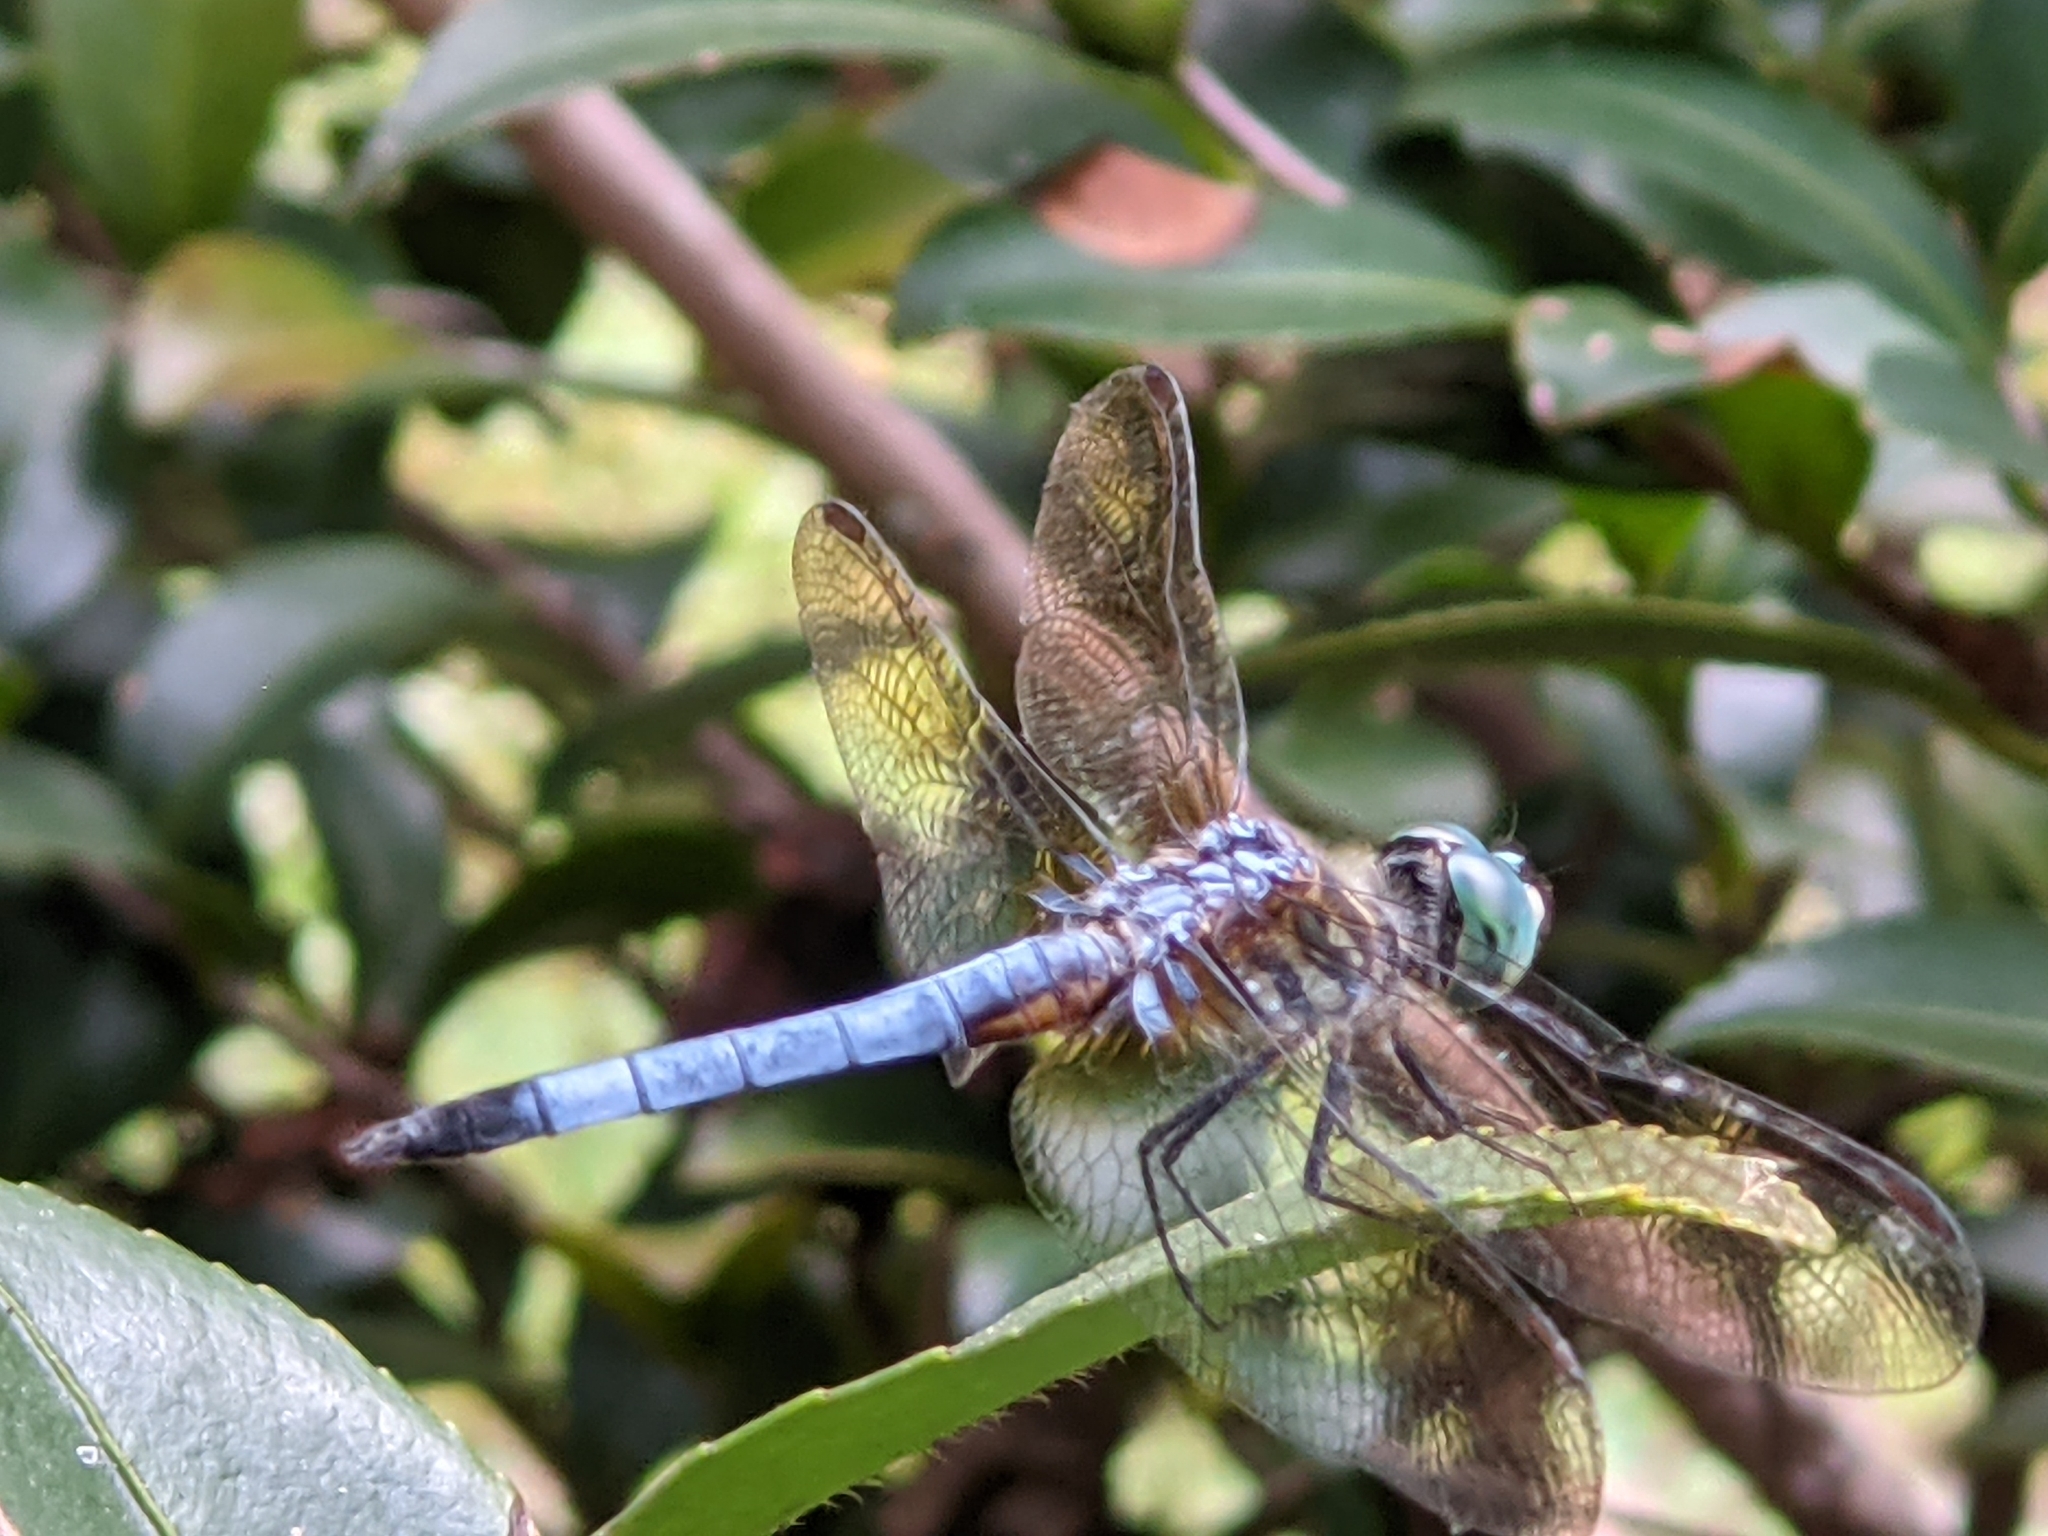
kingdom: Animalia
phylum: Arthropoda
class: Insecta
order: Odonata
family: Libellulidae
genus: Pachydiplax
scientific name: Pachydiplax longipennis
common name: Blue dasher
